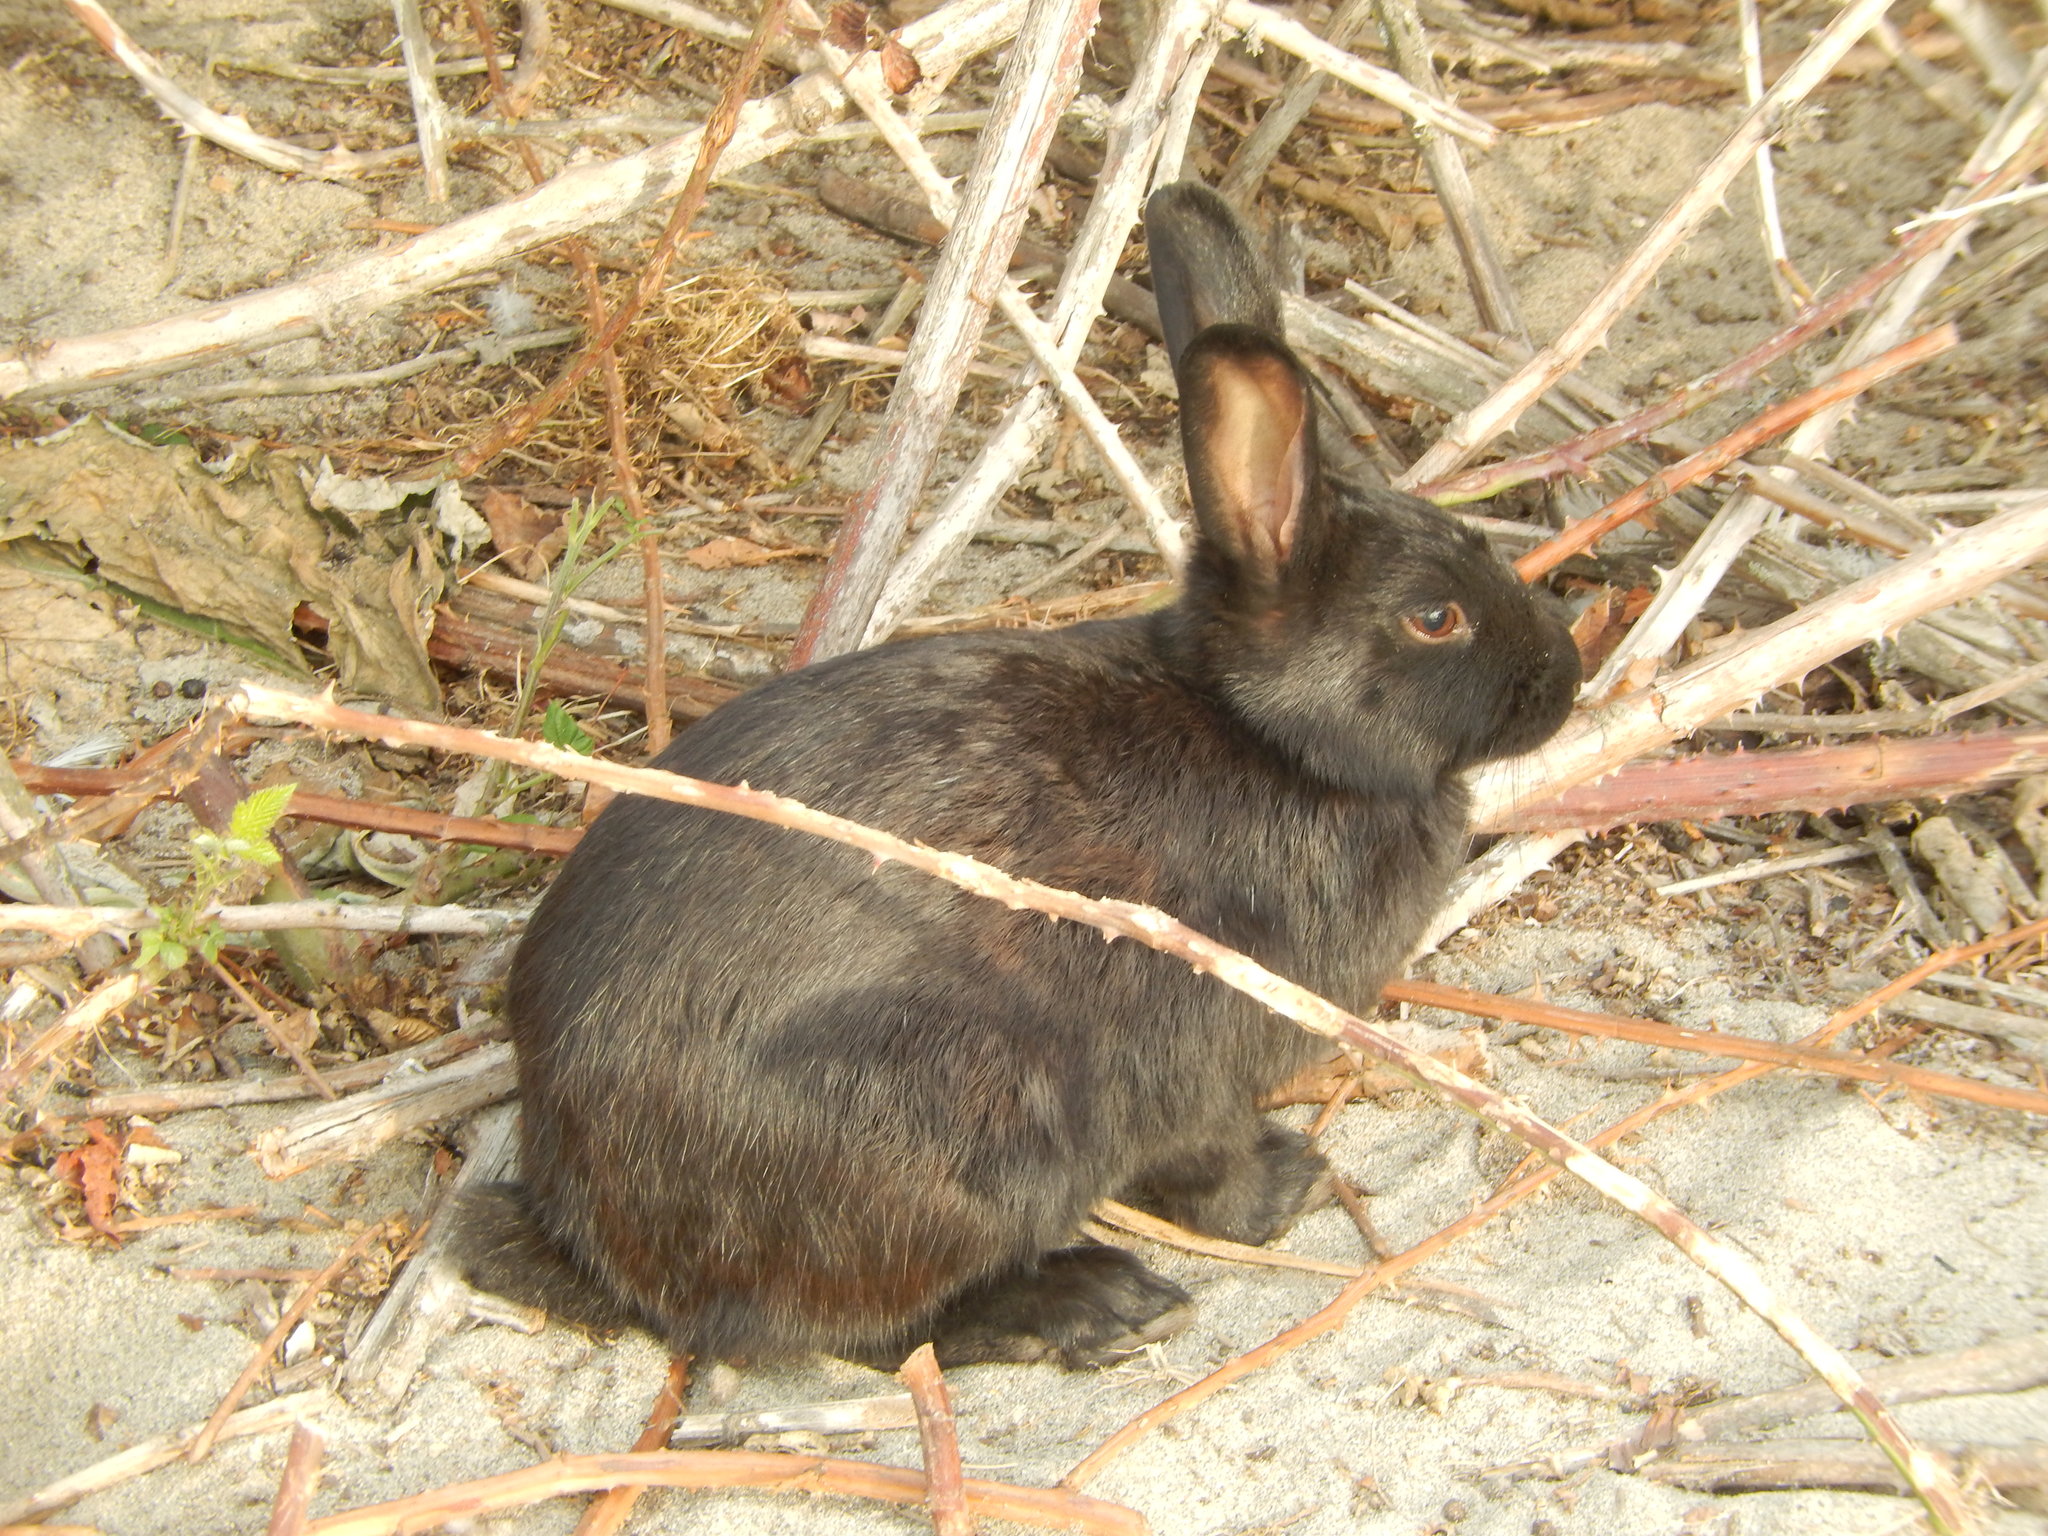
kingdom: Animalia
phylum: Chordata
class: Mammalia
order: Lagomorpha
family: Leporidae
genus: Oryctolagus
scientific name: Oryctolagus cuniculus
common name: European rabbit
